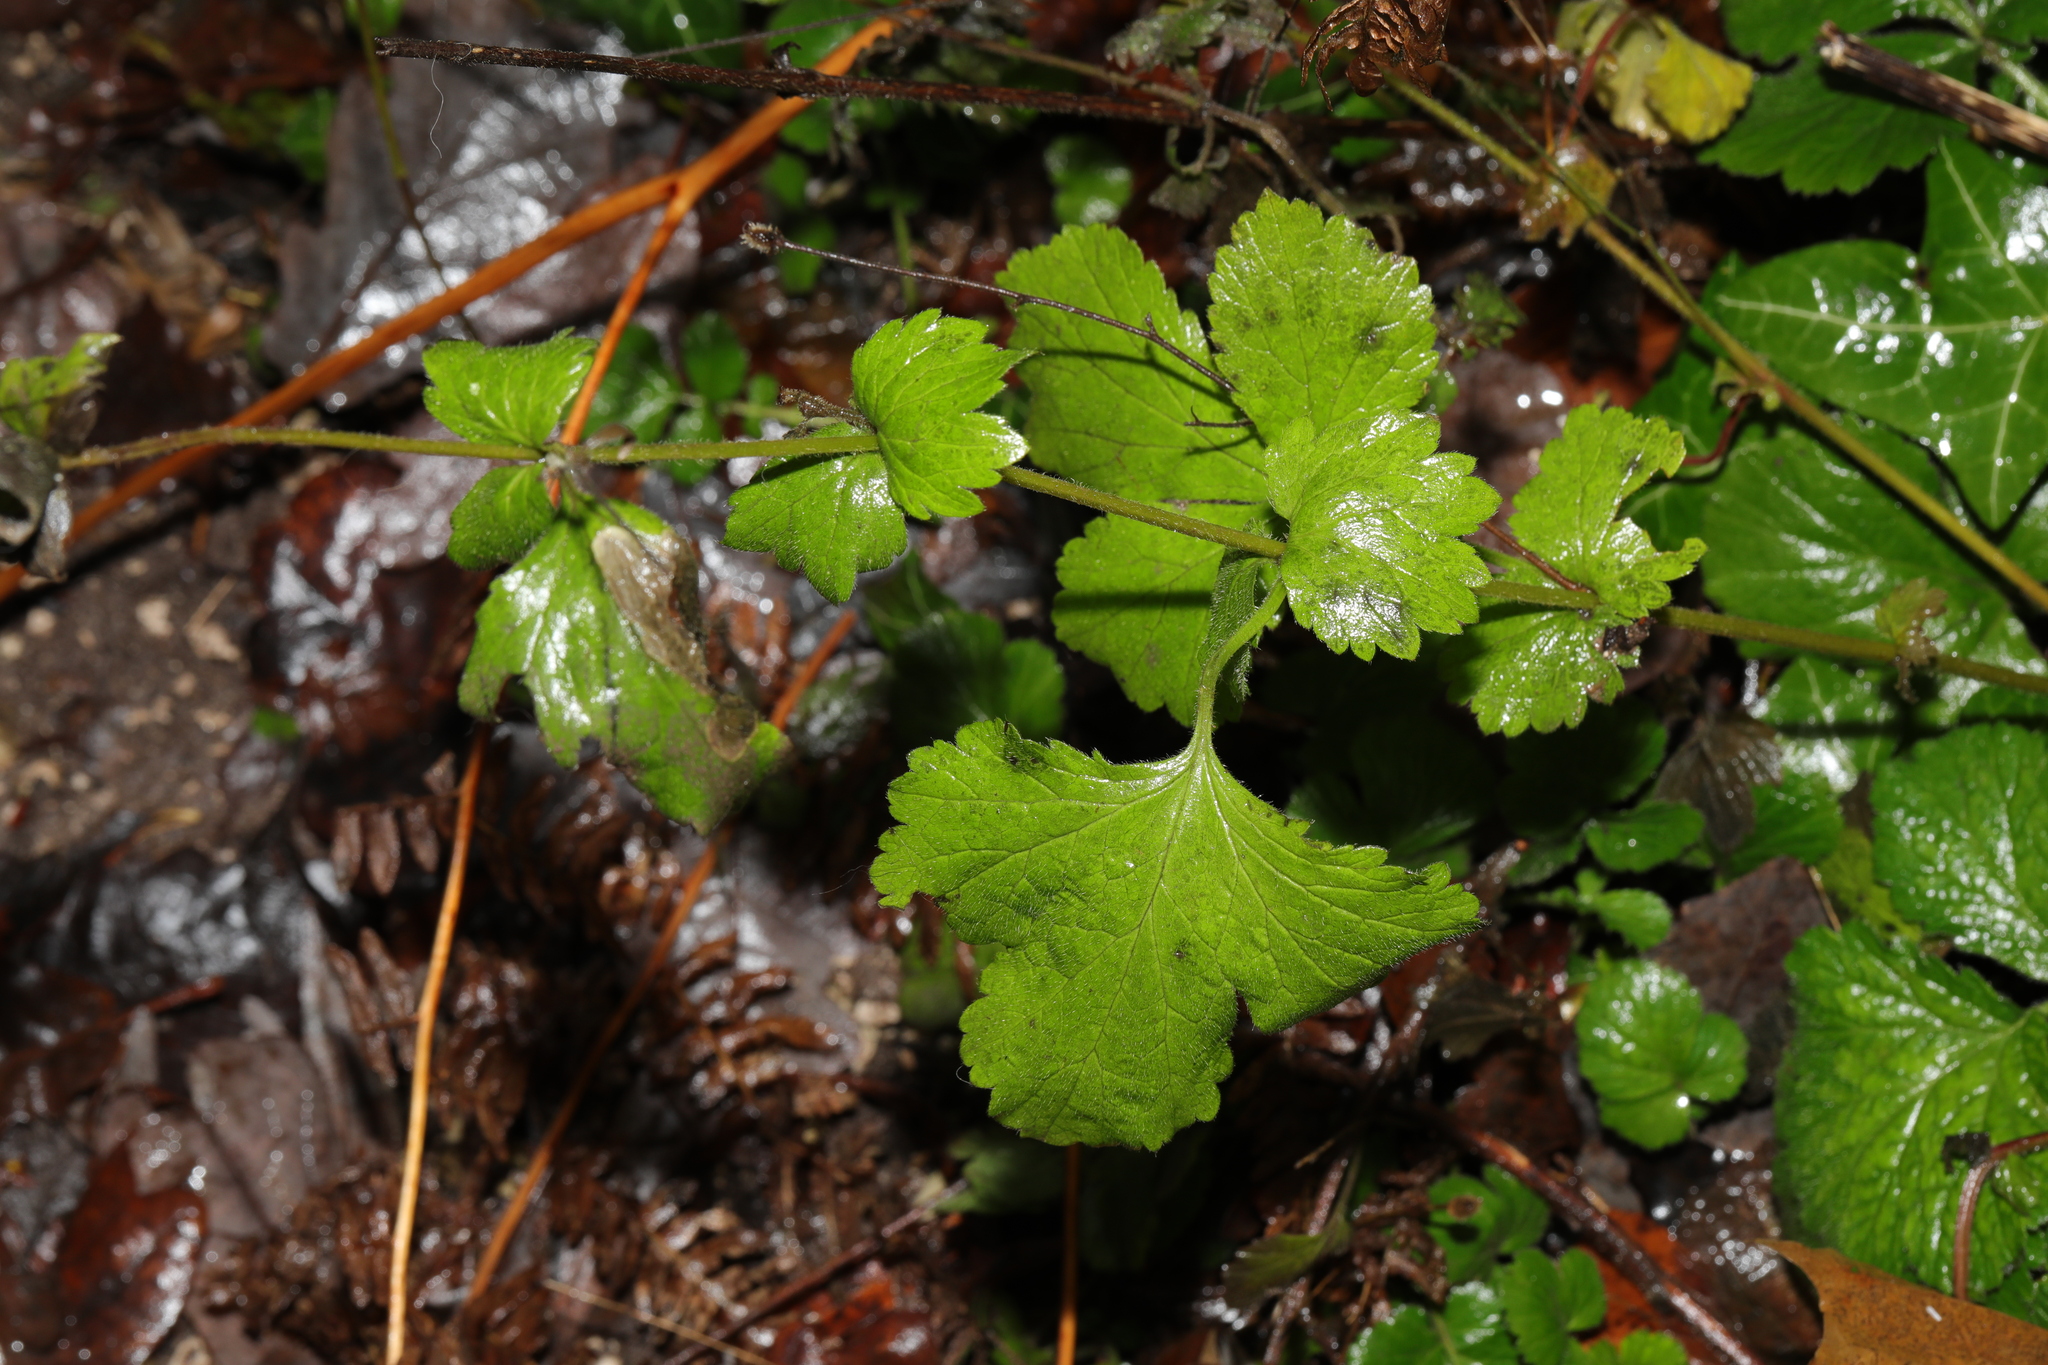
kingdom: Plantae
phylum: Tracheophyta
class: Magnoliopsida
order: Rosales
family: Rosaceae
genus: Geum
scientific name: Geum urbanum
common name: Wood avens
